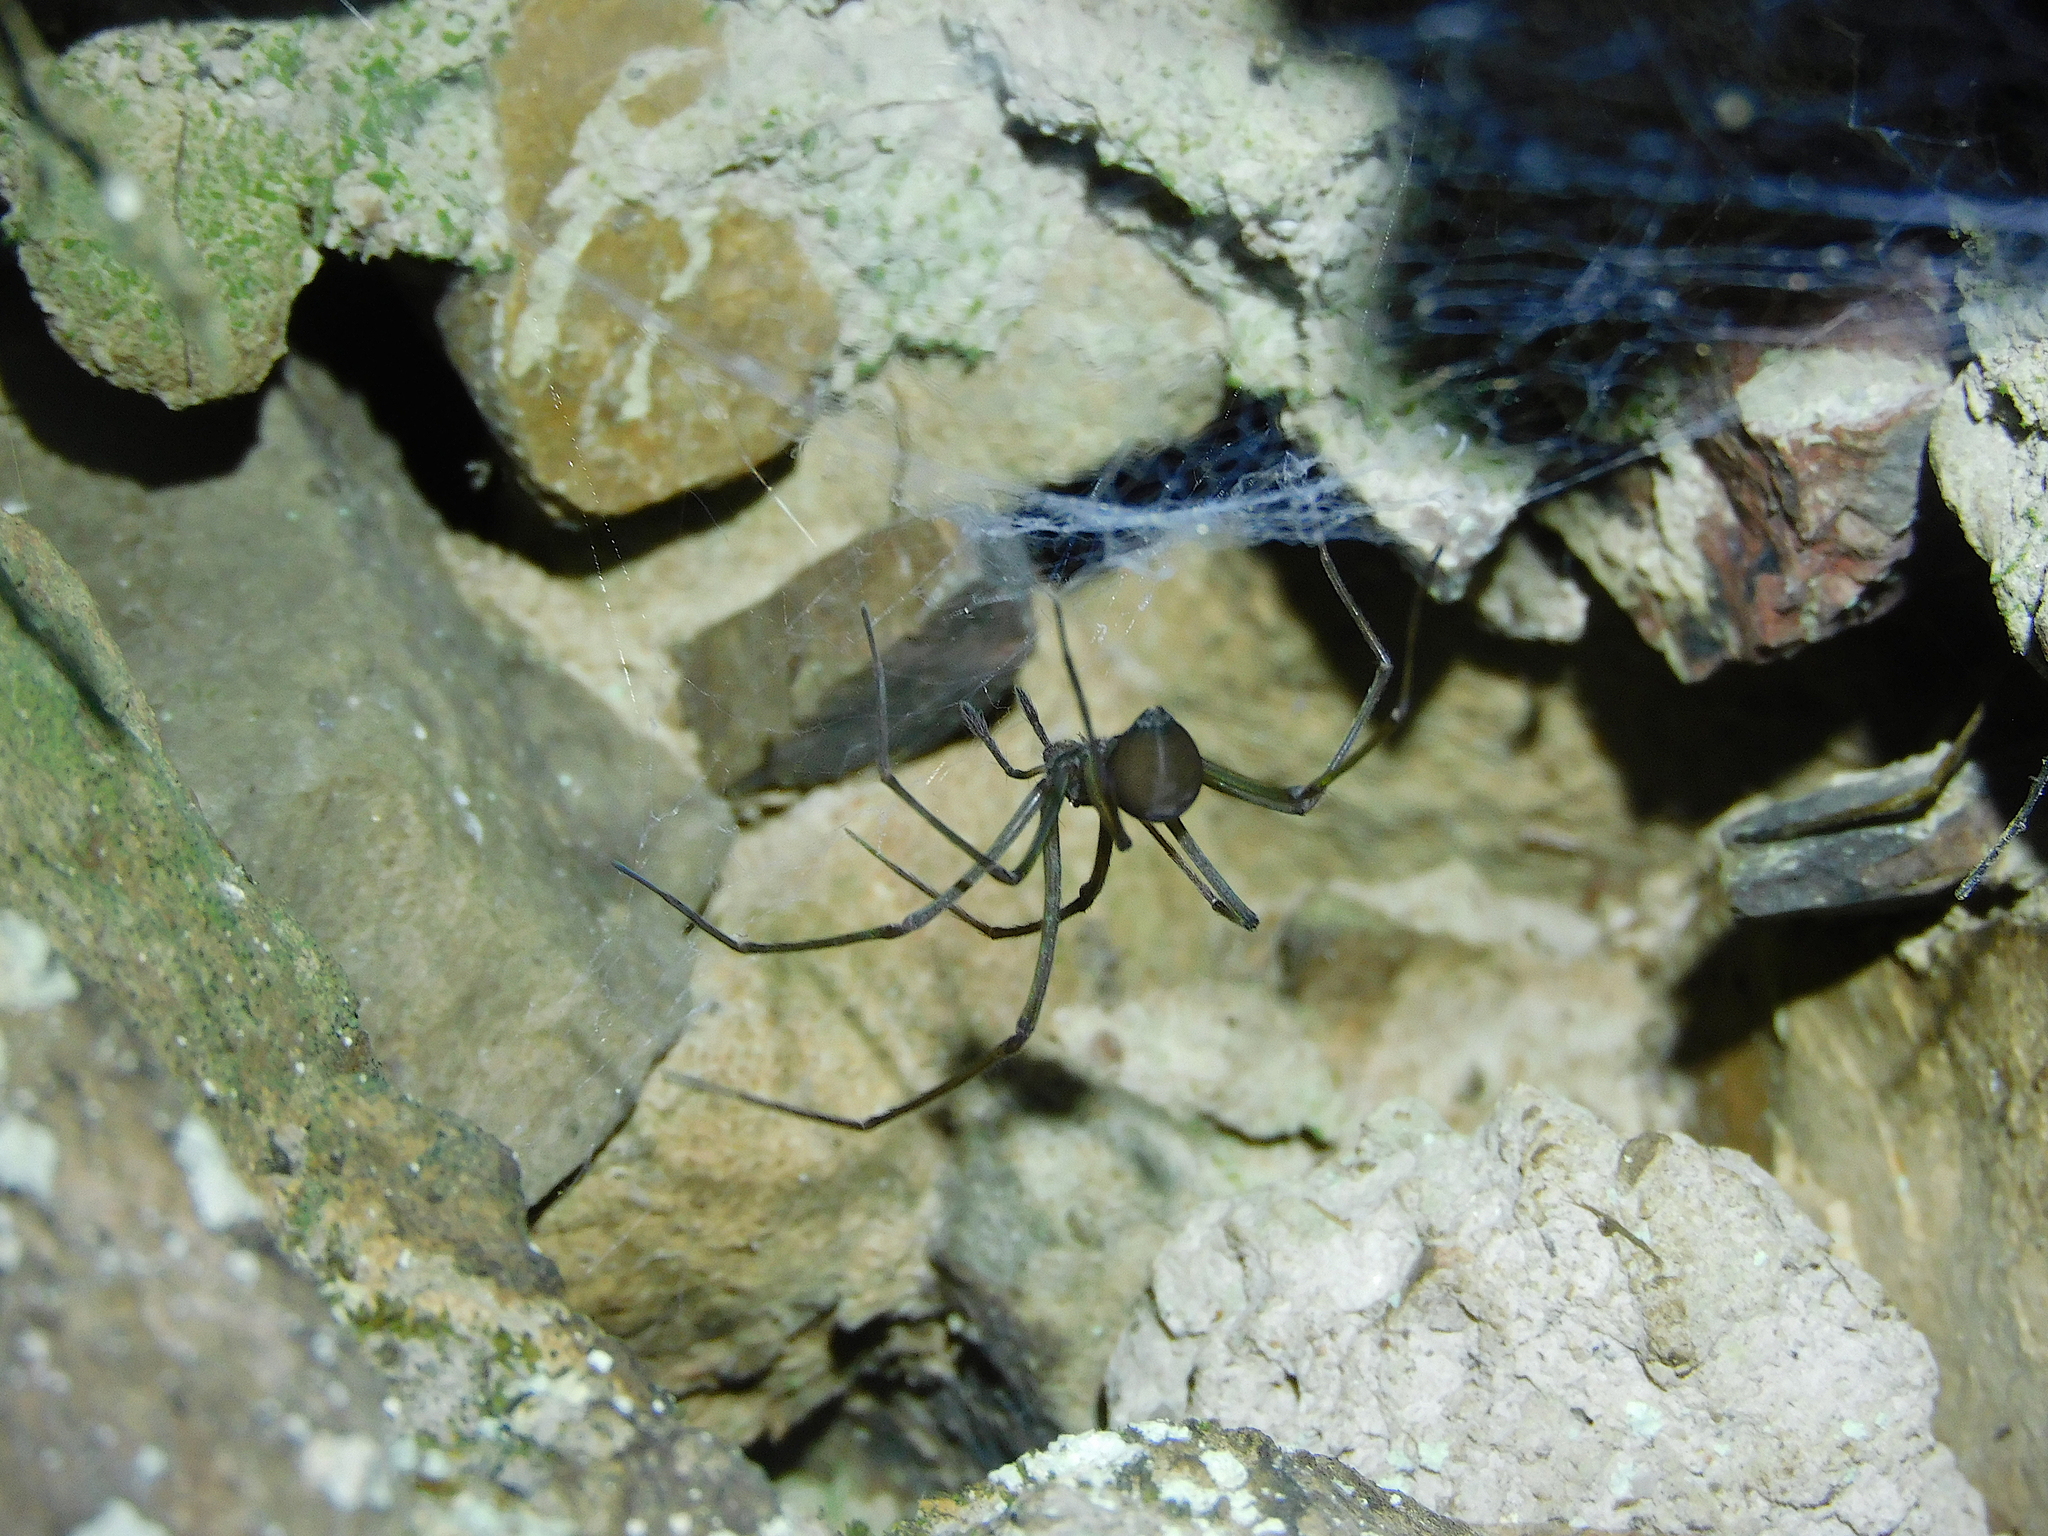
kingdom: Animalia
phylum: Arthropoda
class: Arachnida
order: Araneae
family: Gradungulidae
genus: Hickmania
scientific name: Hickmania troglodytes
